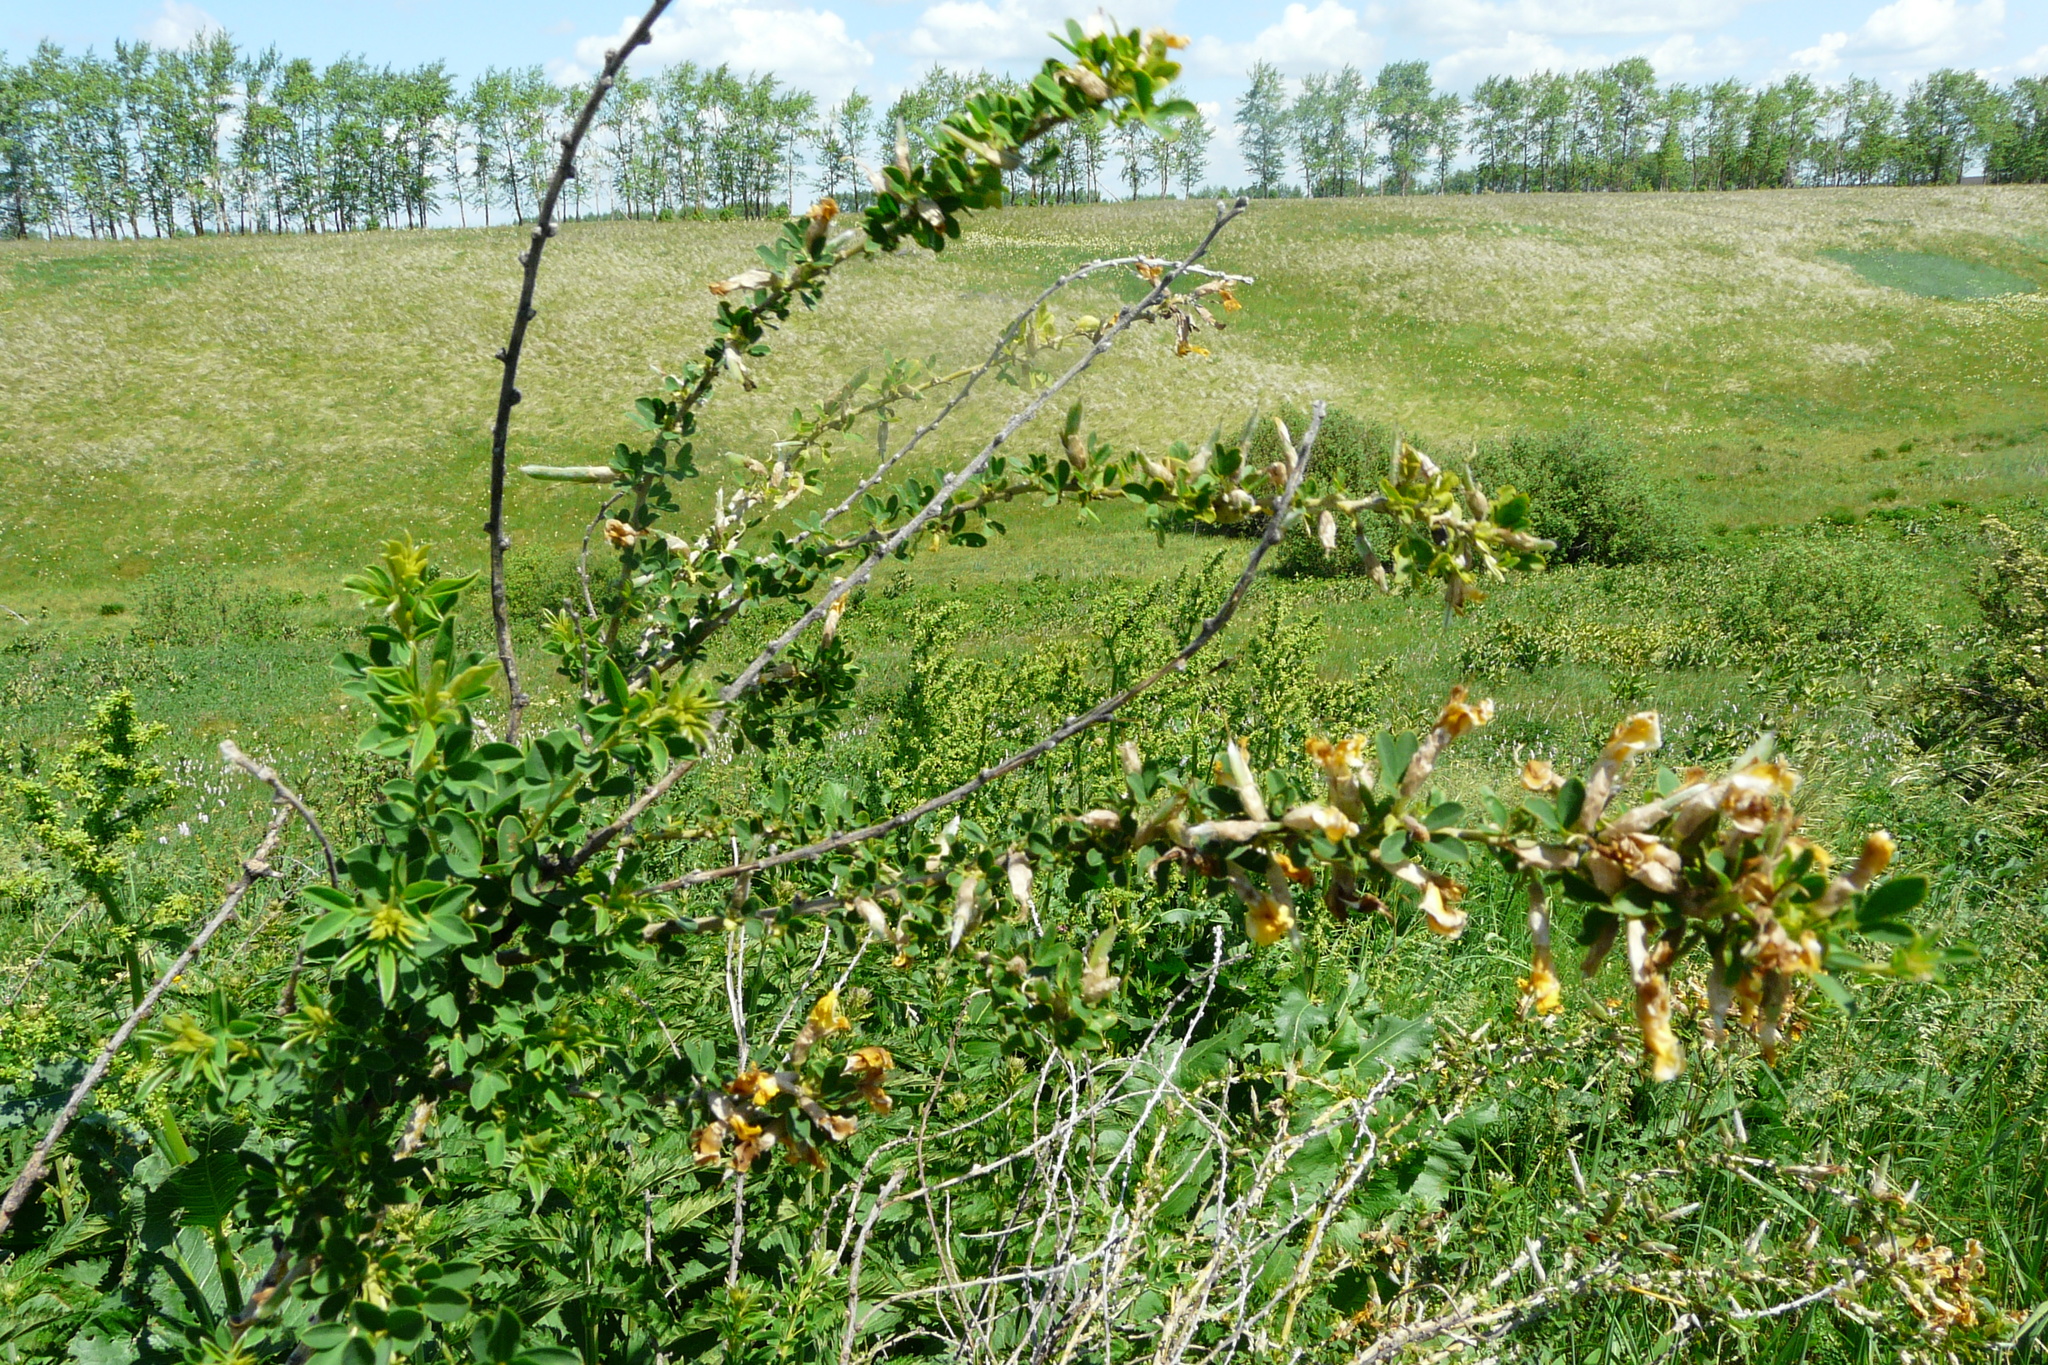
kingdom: Plantae
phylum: Tracheophyta
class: Magnoliopsida
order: Fabales
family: Fabaceae
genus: Chamaecytisus
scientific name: Chamaecytisus ruthenicus
